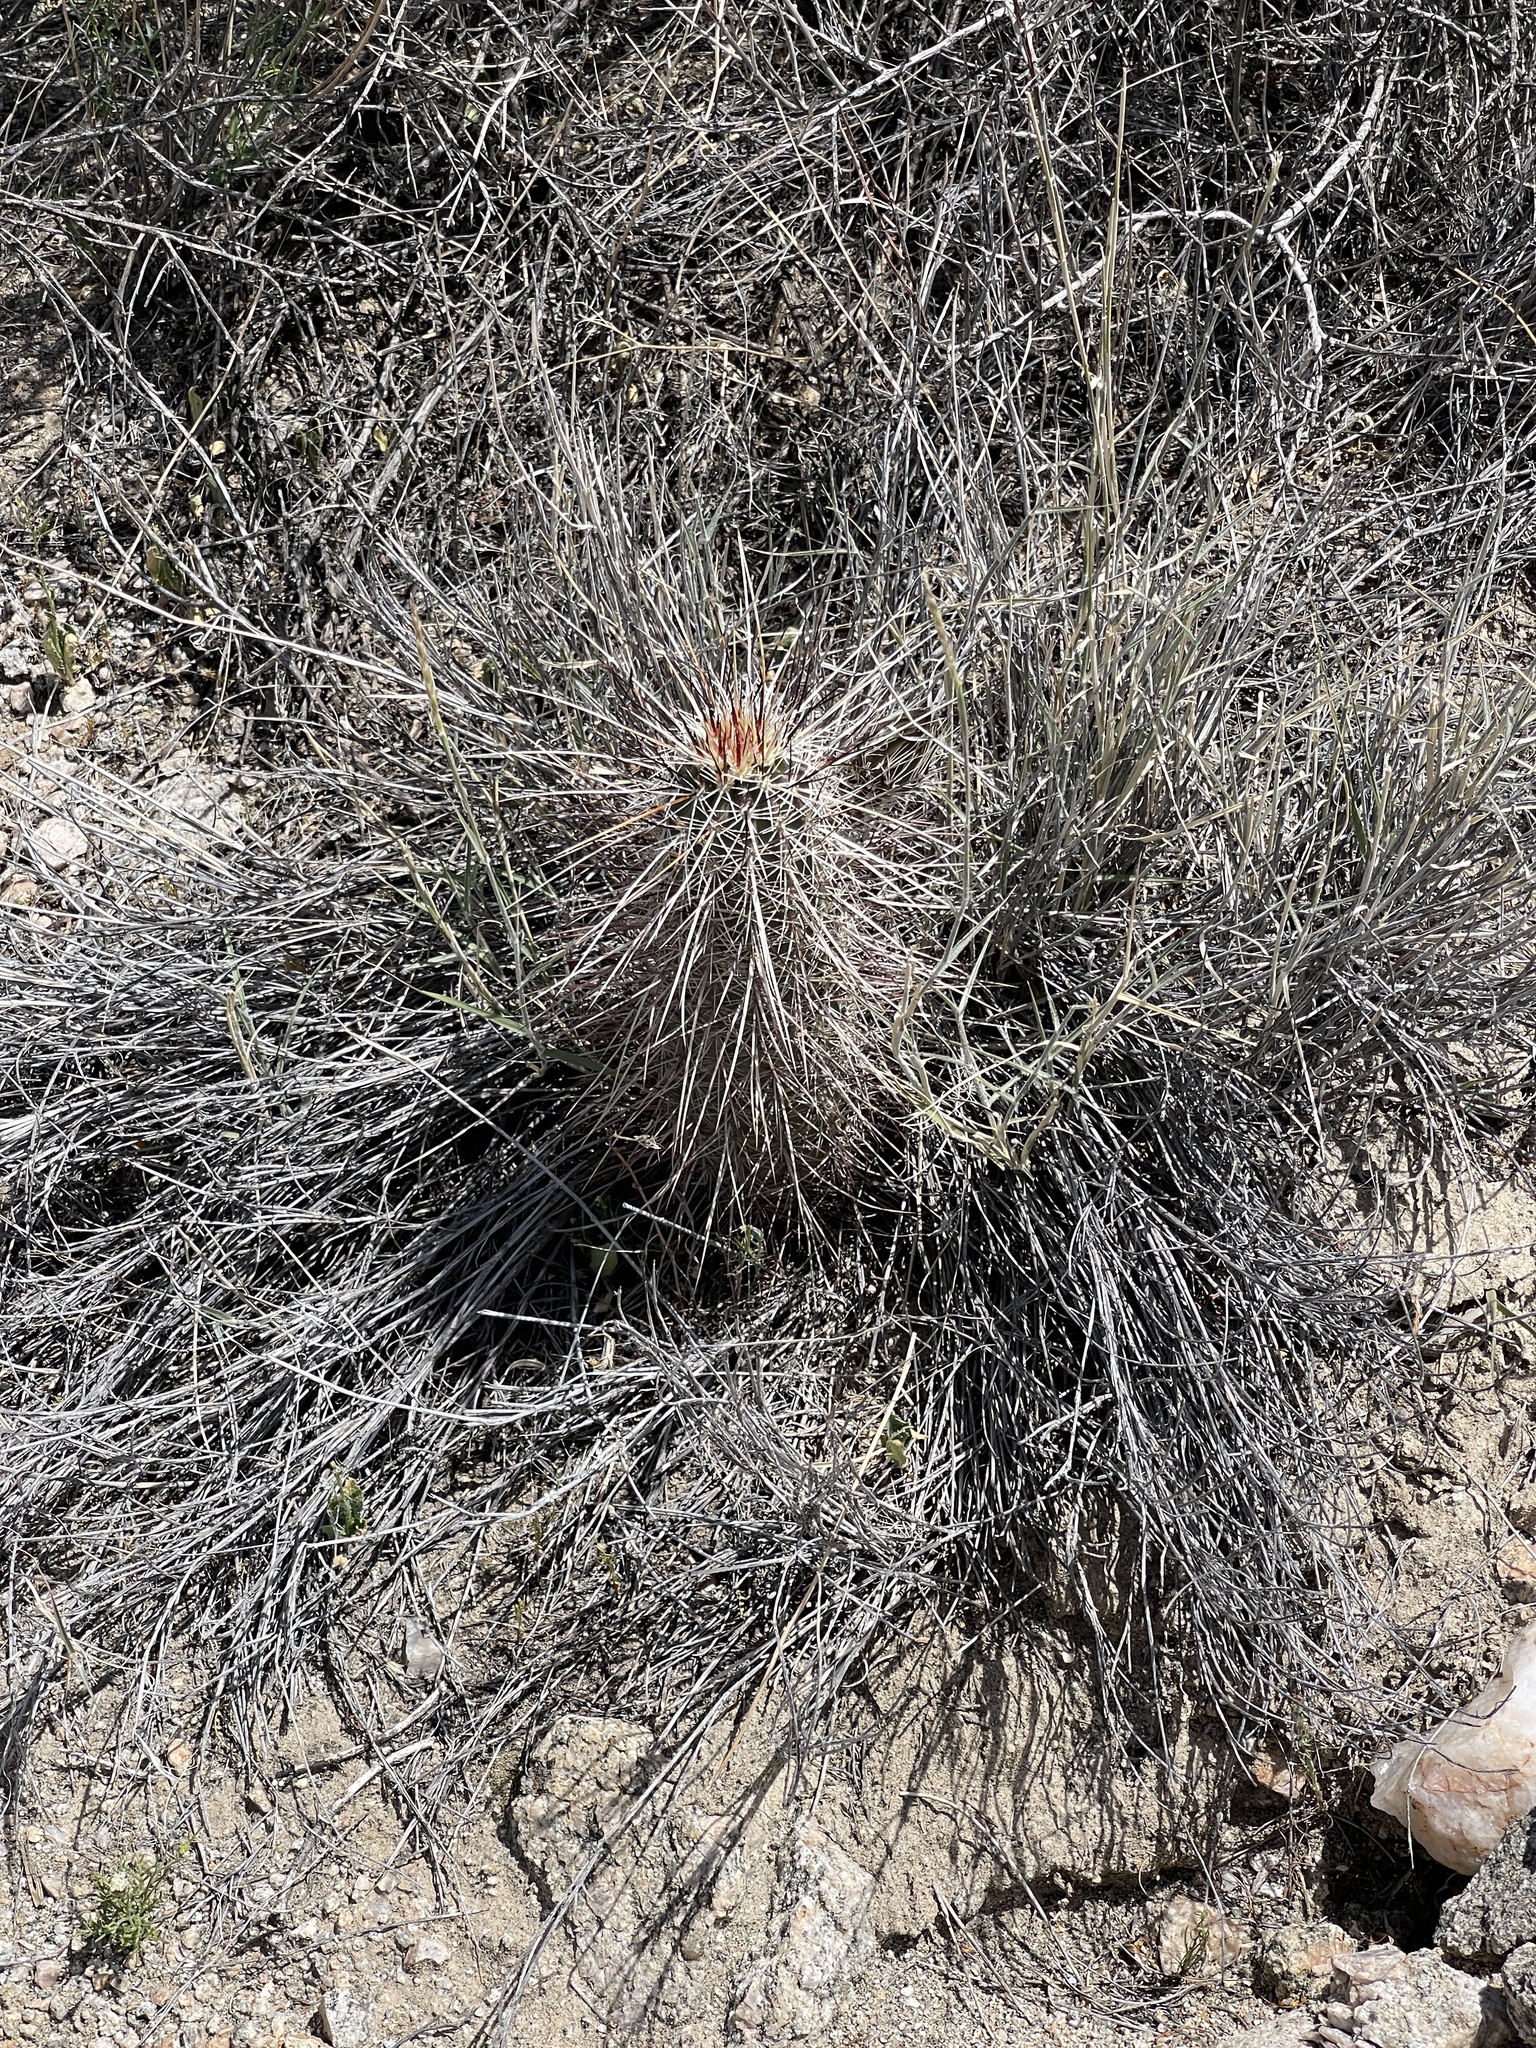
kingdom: Plantae
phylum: Tracheophyta
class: Magnoliopsida
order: Caryophyllales
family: Cactaceae
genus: Echinocereus
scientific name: Echinocereus engelmannii
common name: Engelmann's hedgehog cactus
